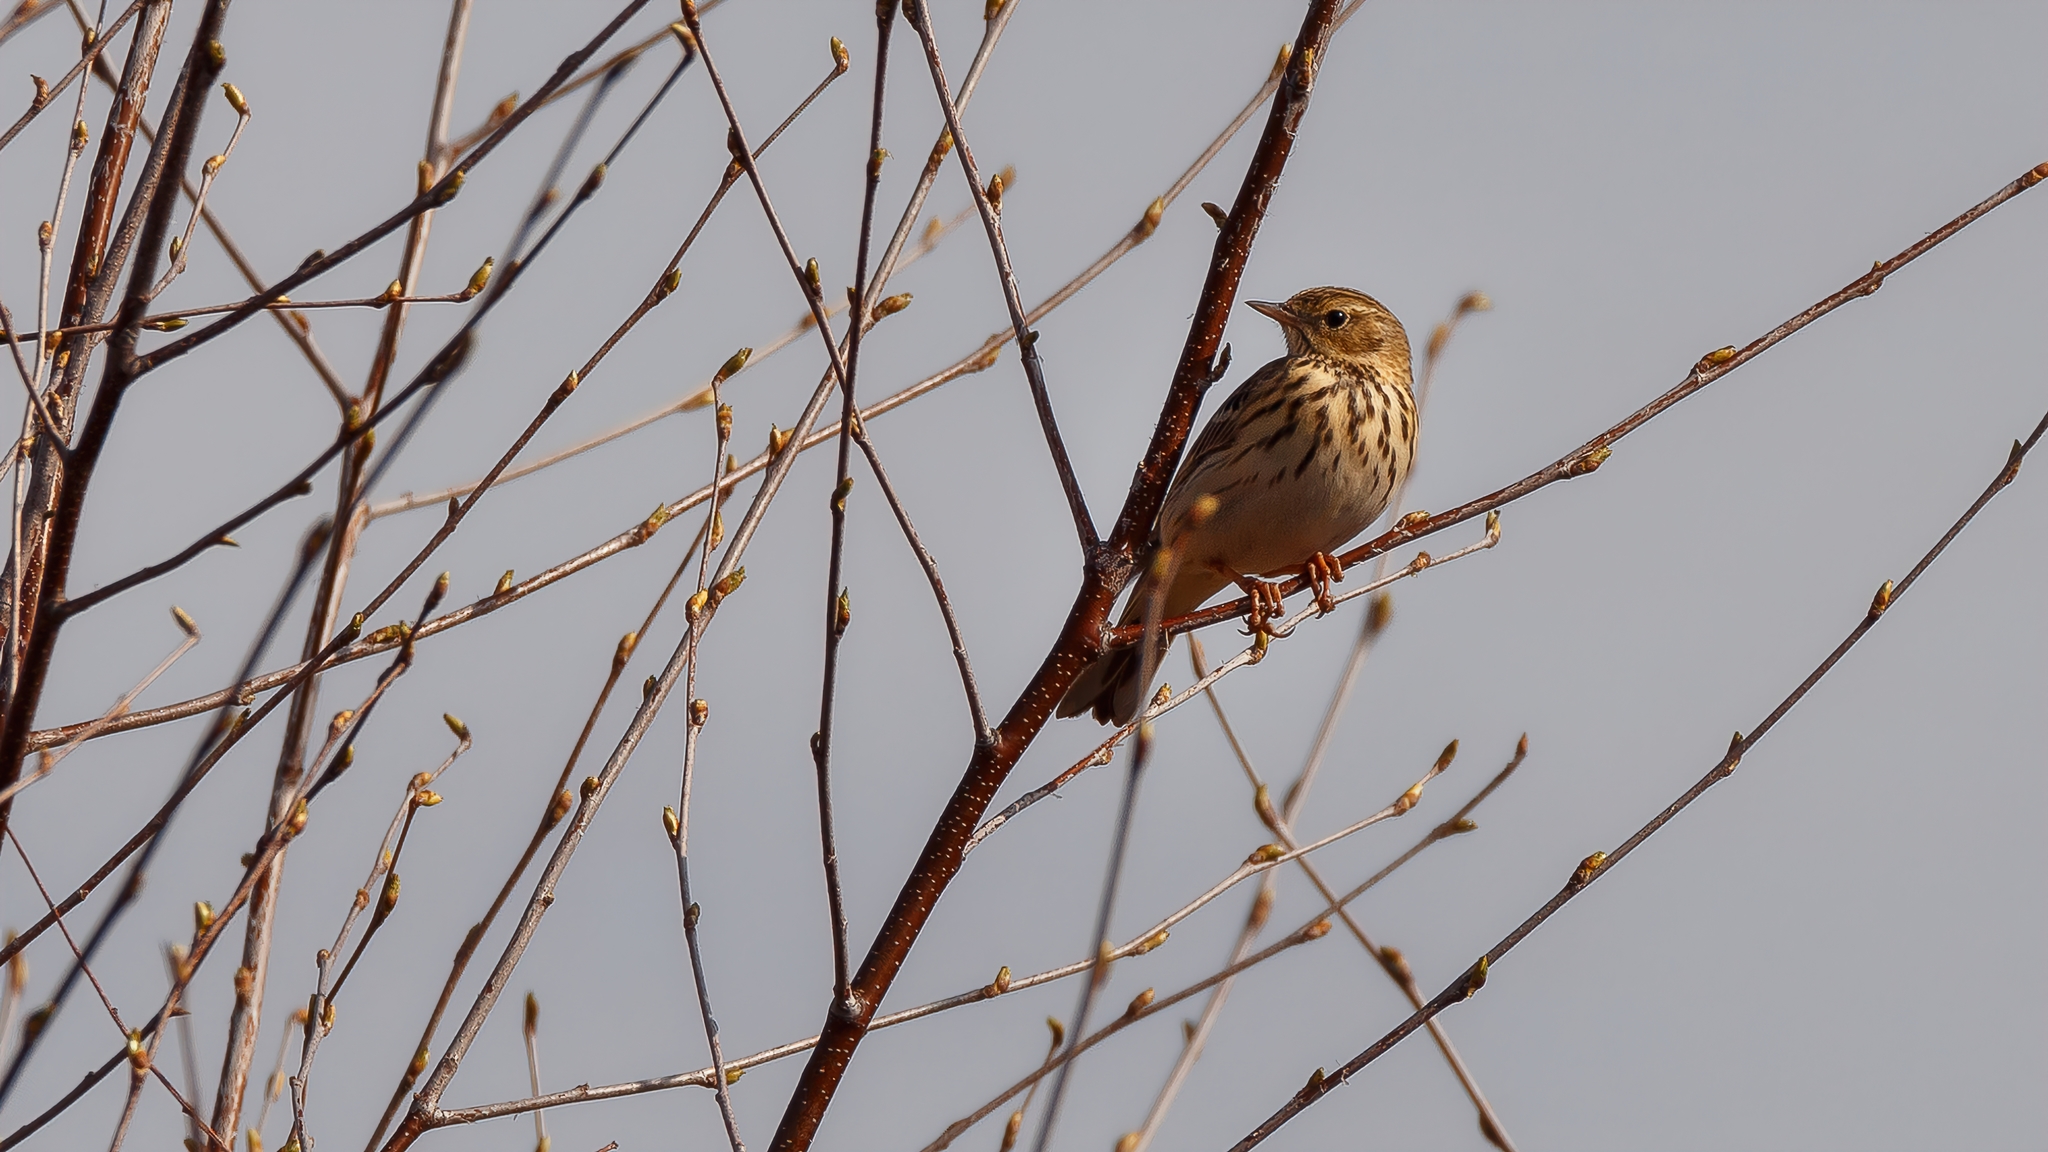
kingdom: Animalia
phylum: Chordata
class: Aves
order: Passeriformes
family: Motacillidae
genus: Anthus
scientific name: Anthus trivialis
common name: Tree pipit
